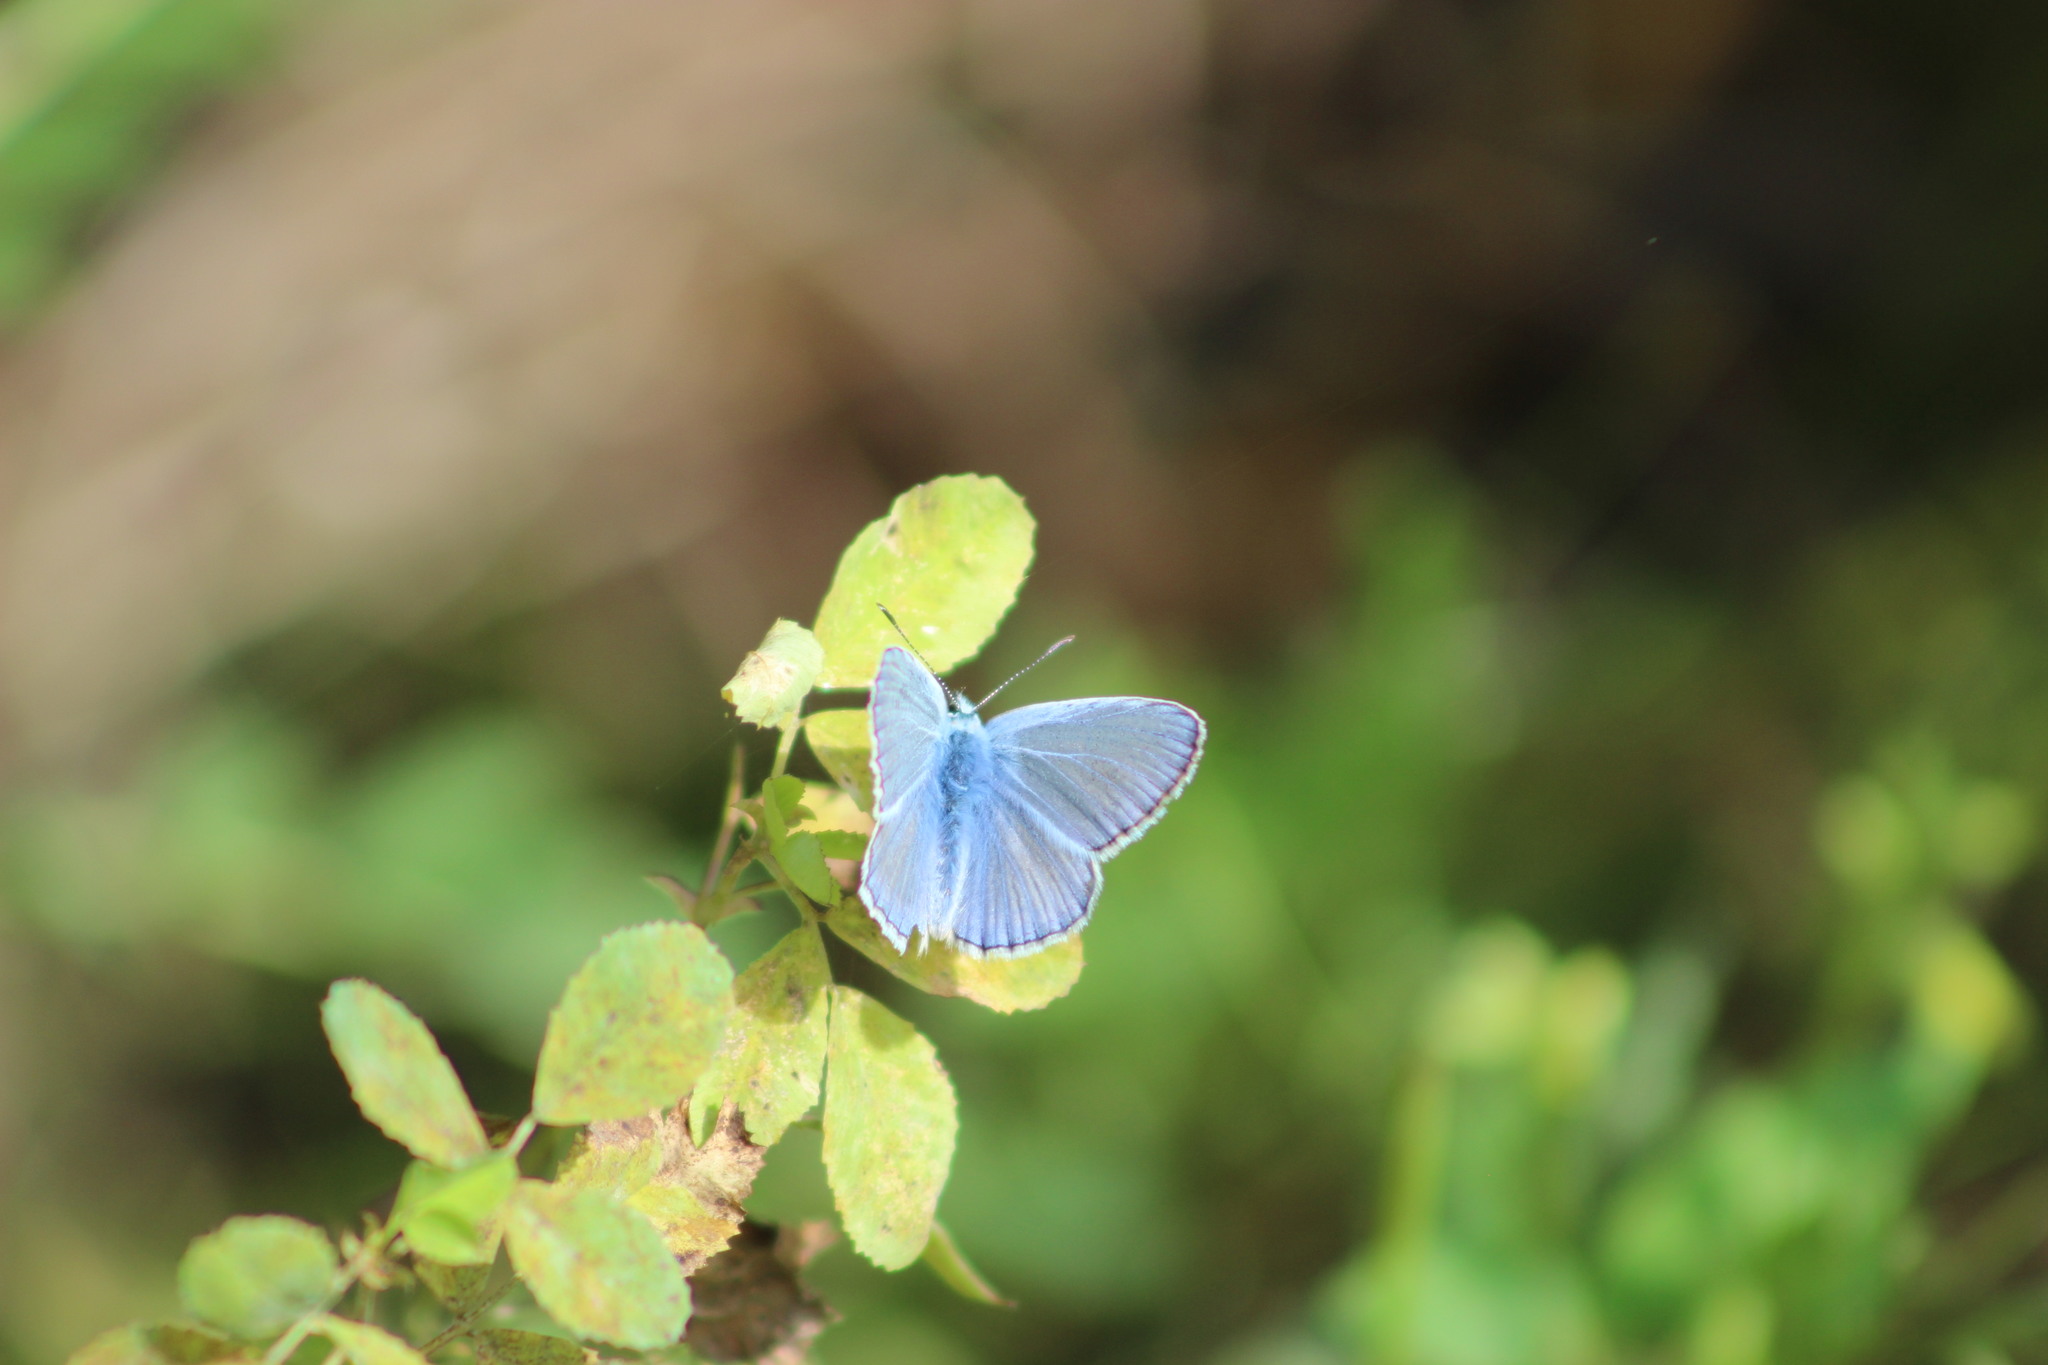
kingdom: Animalia
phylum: Arthropoda
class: Insecta
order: Lepidoptera
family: Lycaenidae
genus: Polyommatus
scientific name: Polyommatus icarus
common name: Common blue
